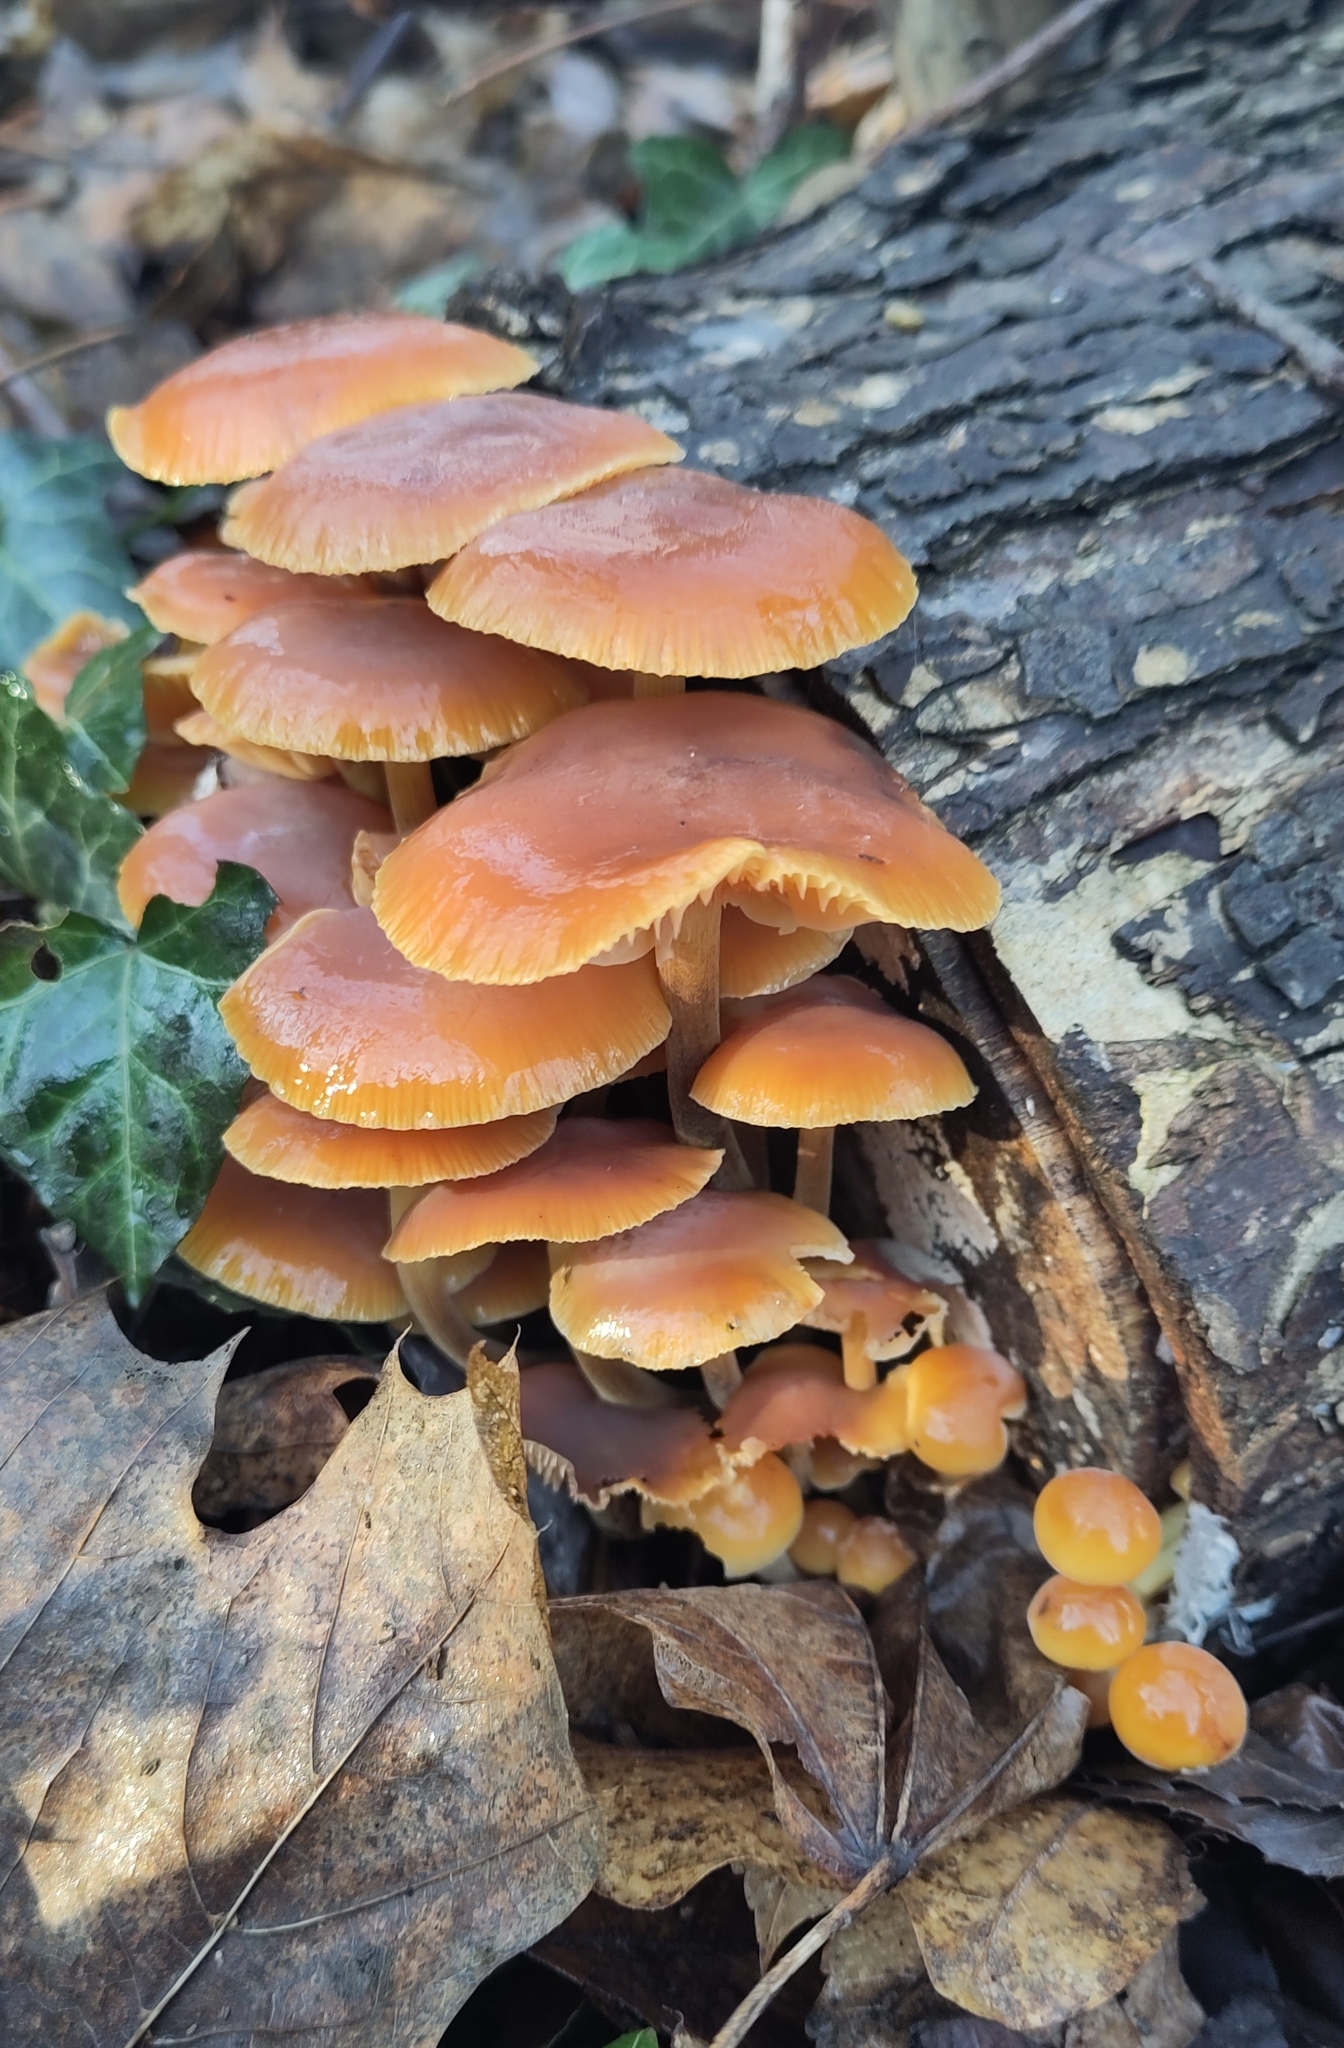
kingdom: Fungi
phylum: Basidiomycota
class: Agaricomycetes
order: Agaricales
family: Physalacriaceae
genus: Flammulina
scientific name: Flammulina
